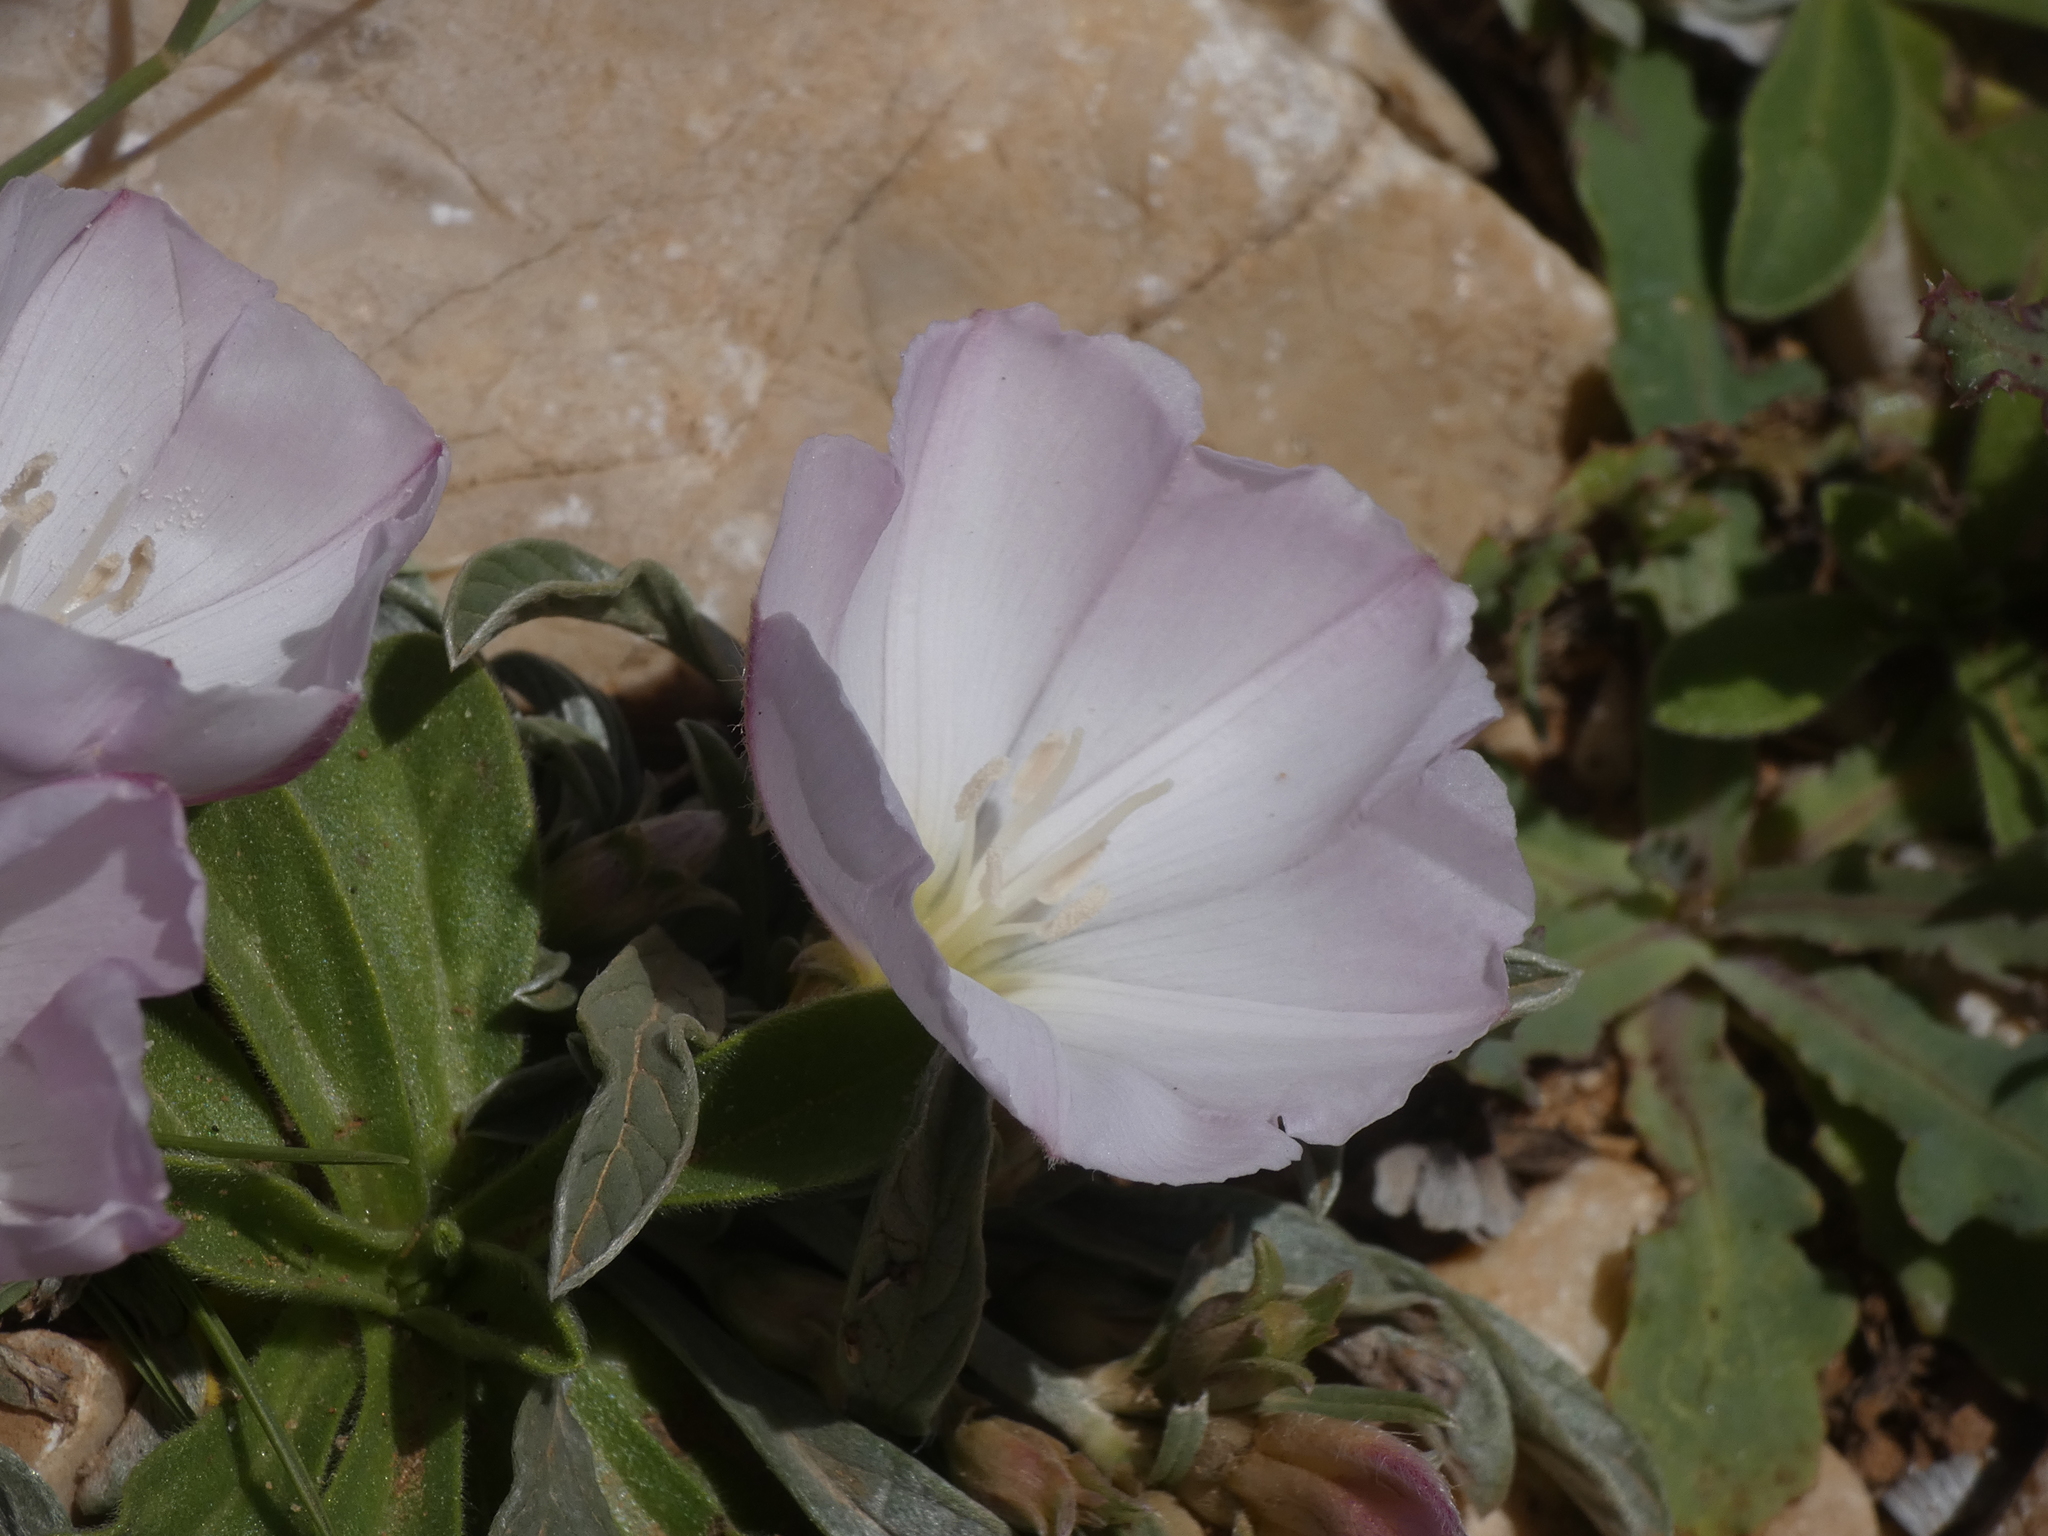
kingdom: Plantae
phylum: Tracheophyta
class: Magnoliopsida
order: Solanales
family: Convolvulaceae
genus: Convolvulus
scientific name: Convolvulus lineatus
